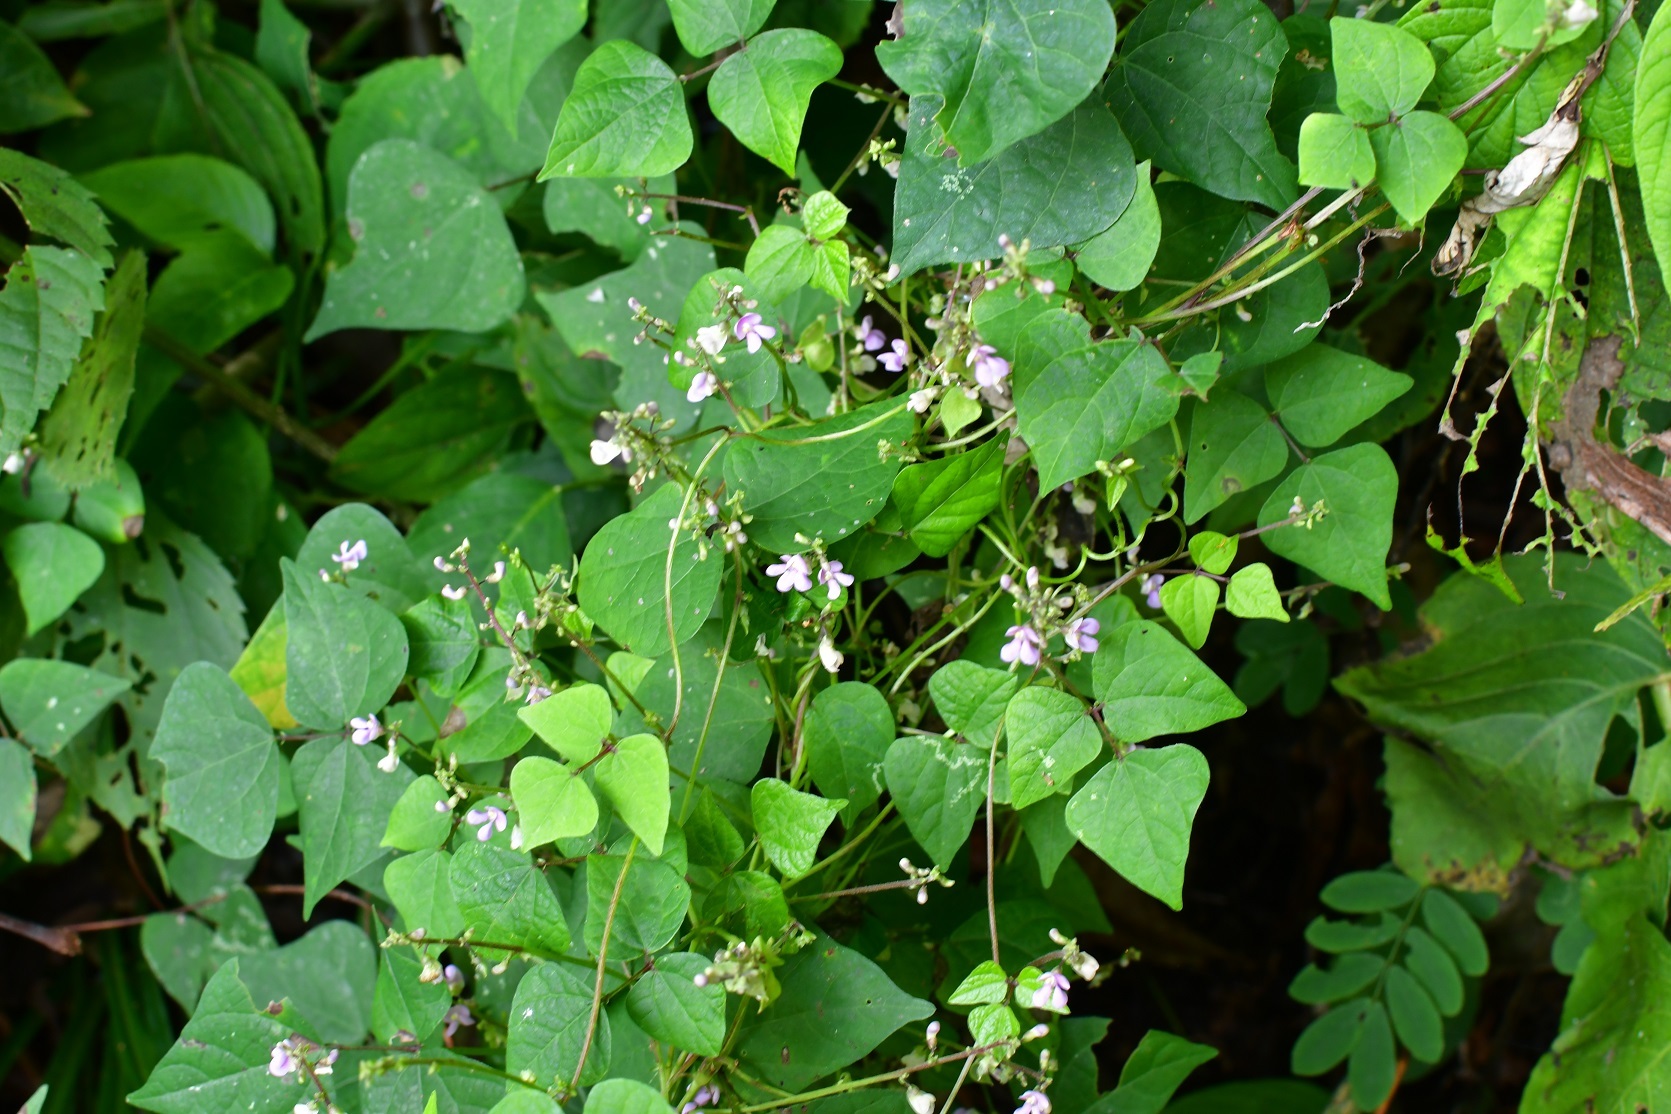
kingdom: Plantae
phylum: Tracheophyta
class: Magnoliopsida
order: Fabales
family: Fabaceae
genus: Phaseolus
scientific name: Phaseolus microcarpus
